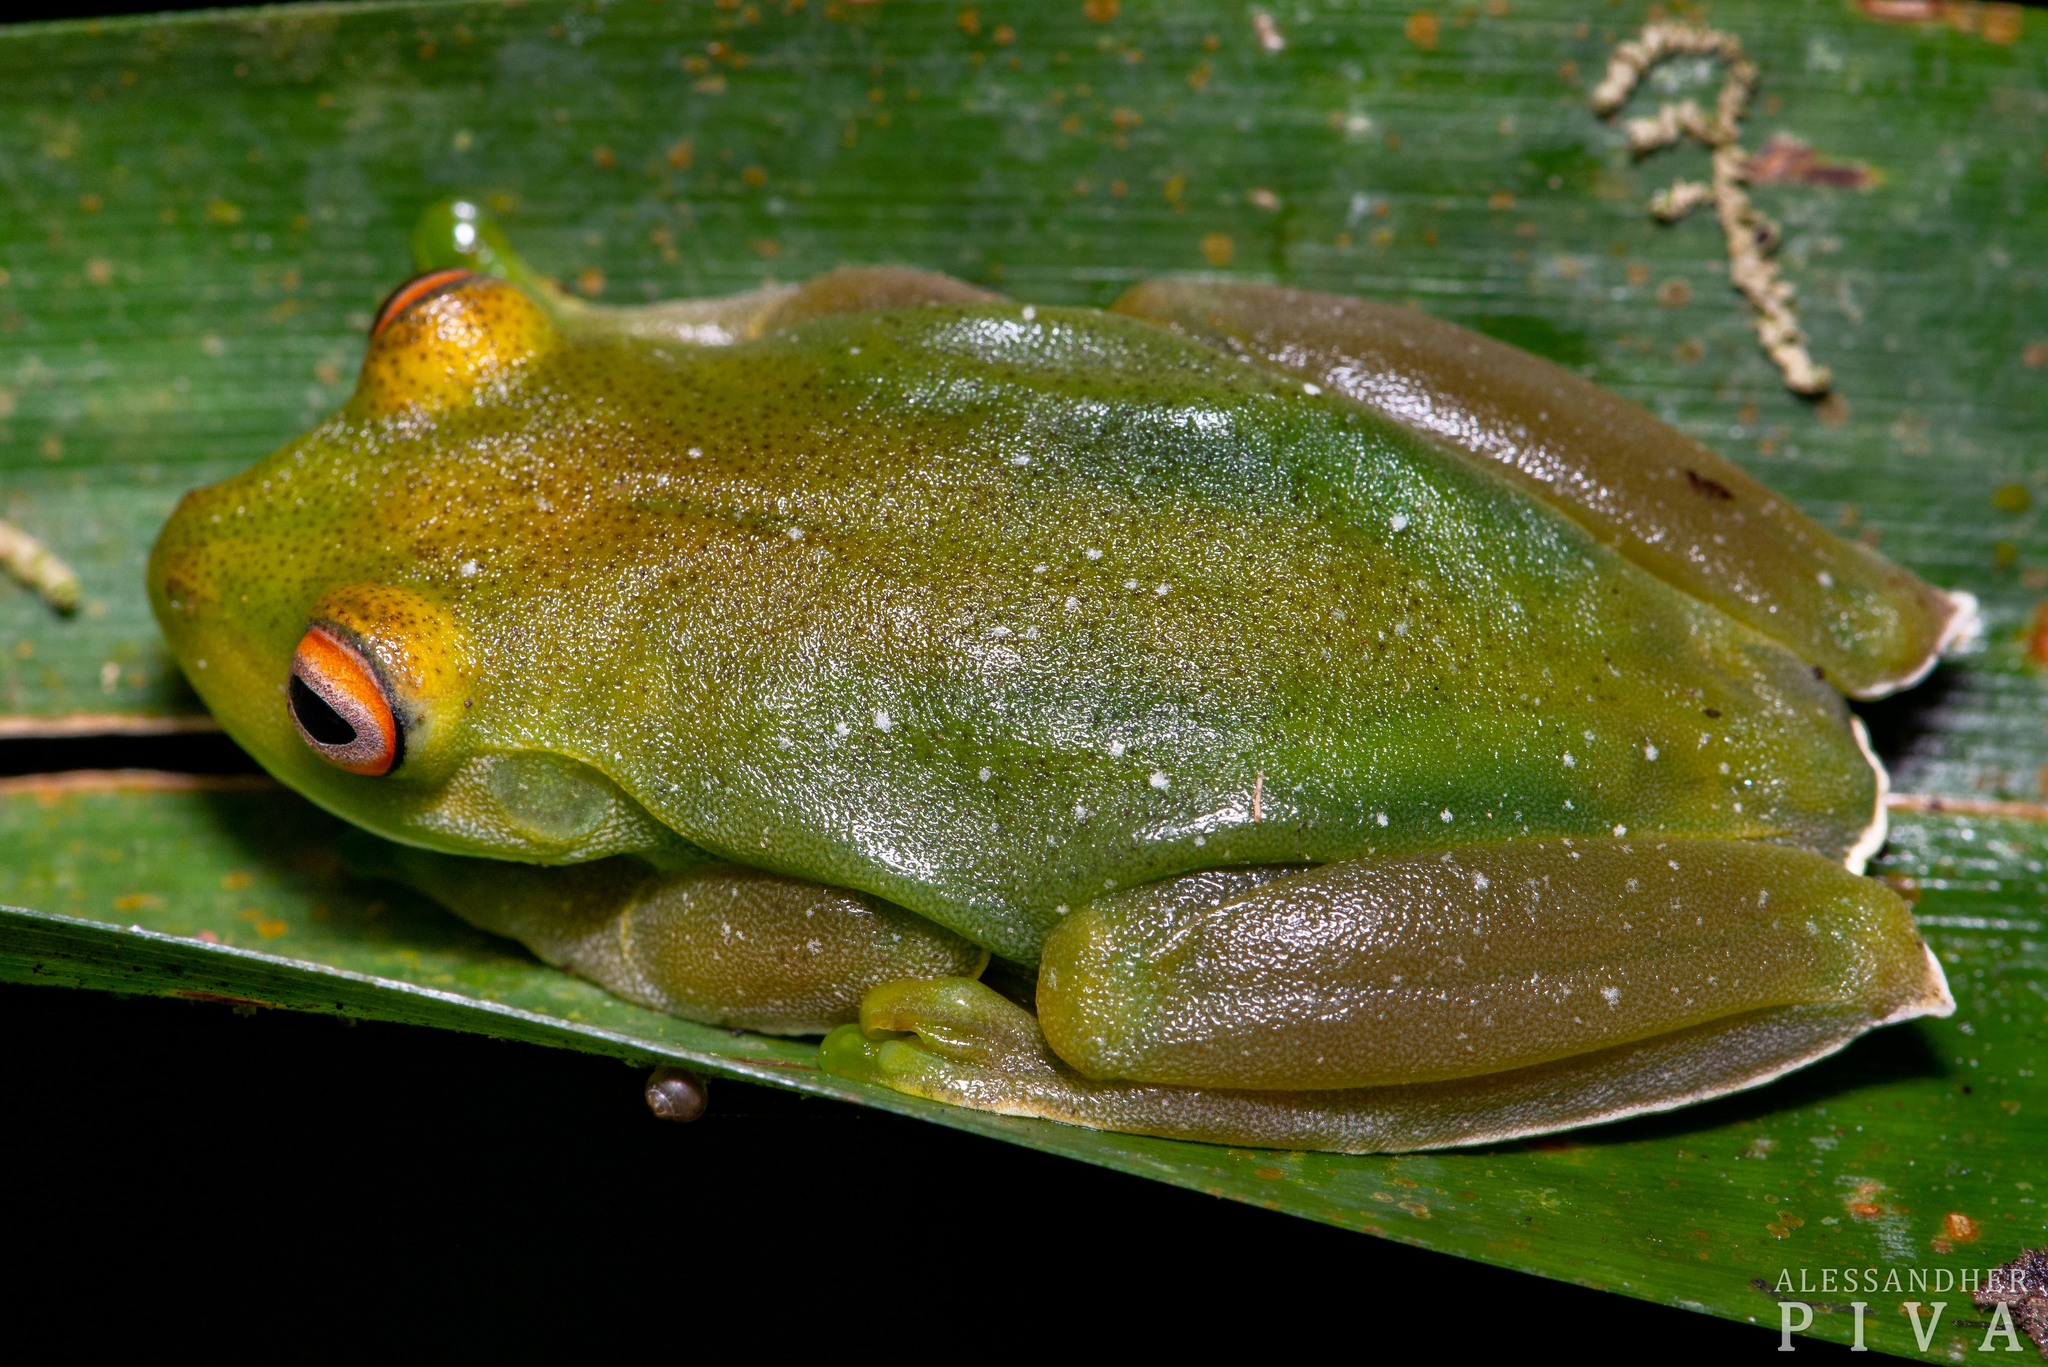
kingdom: Animalia
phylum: Chordata
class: Amphibia
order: Anura
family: Hylidae
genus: Aplastodiscus
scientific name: Aplastodiscus albosignatus
